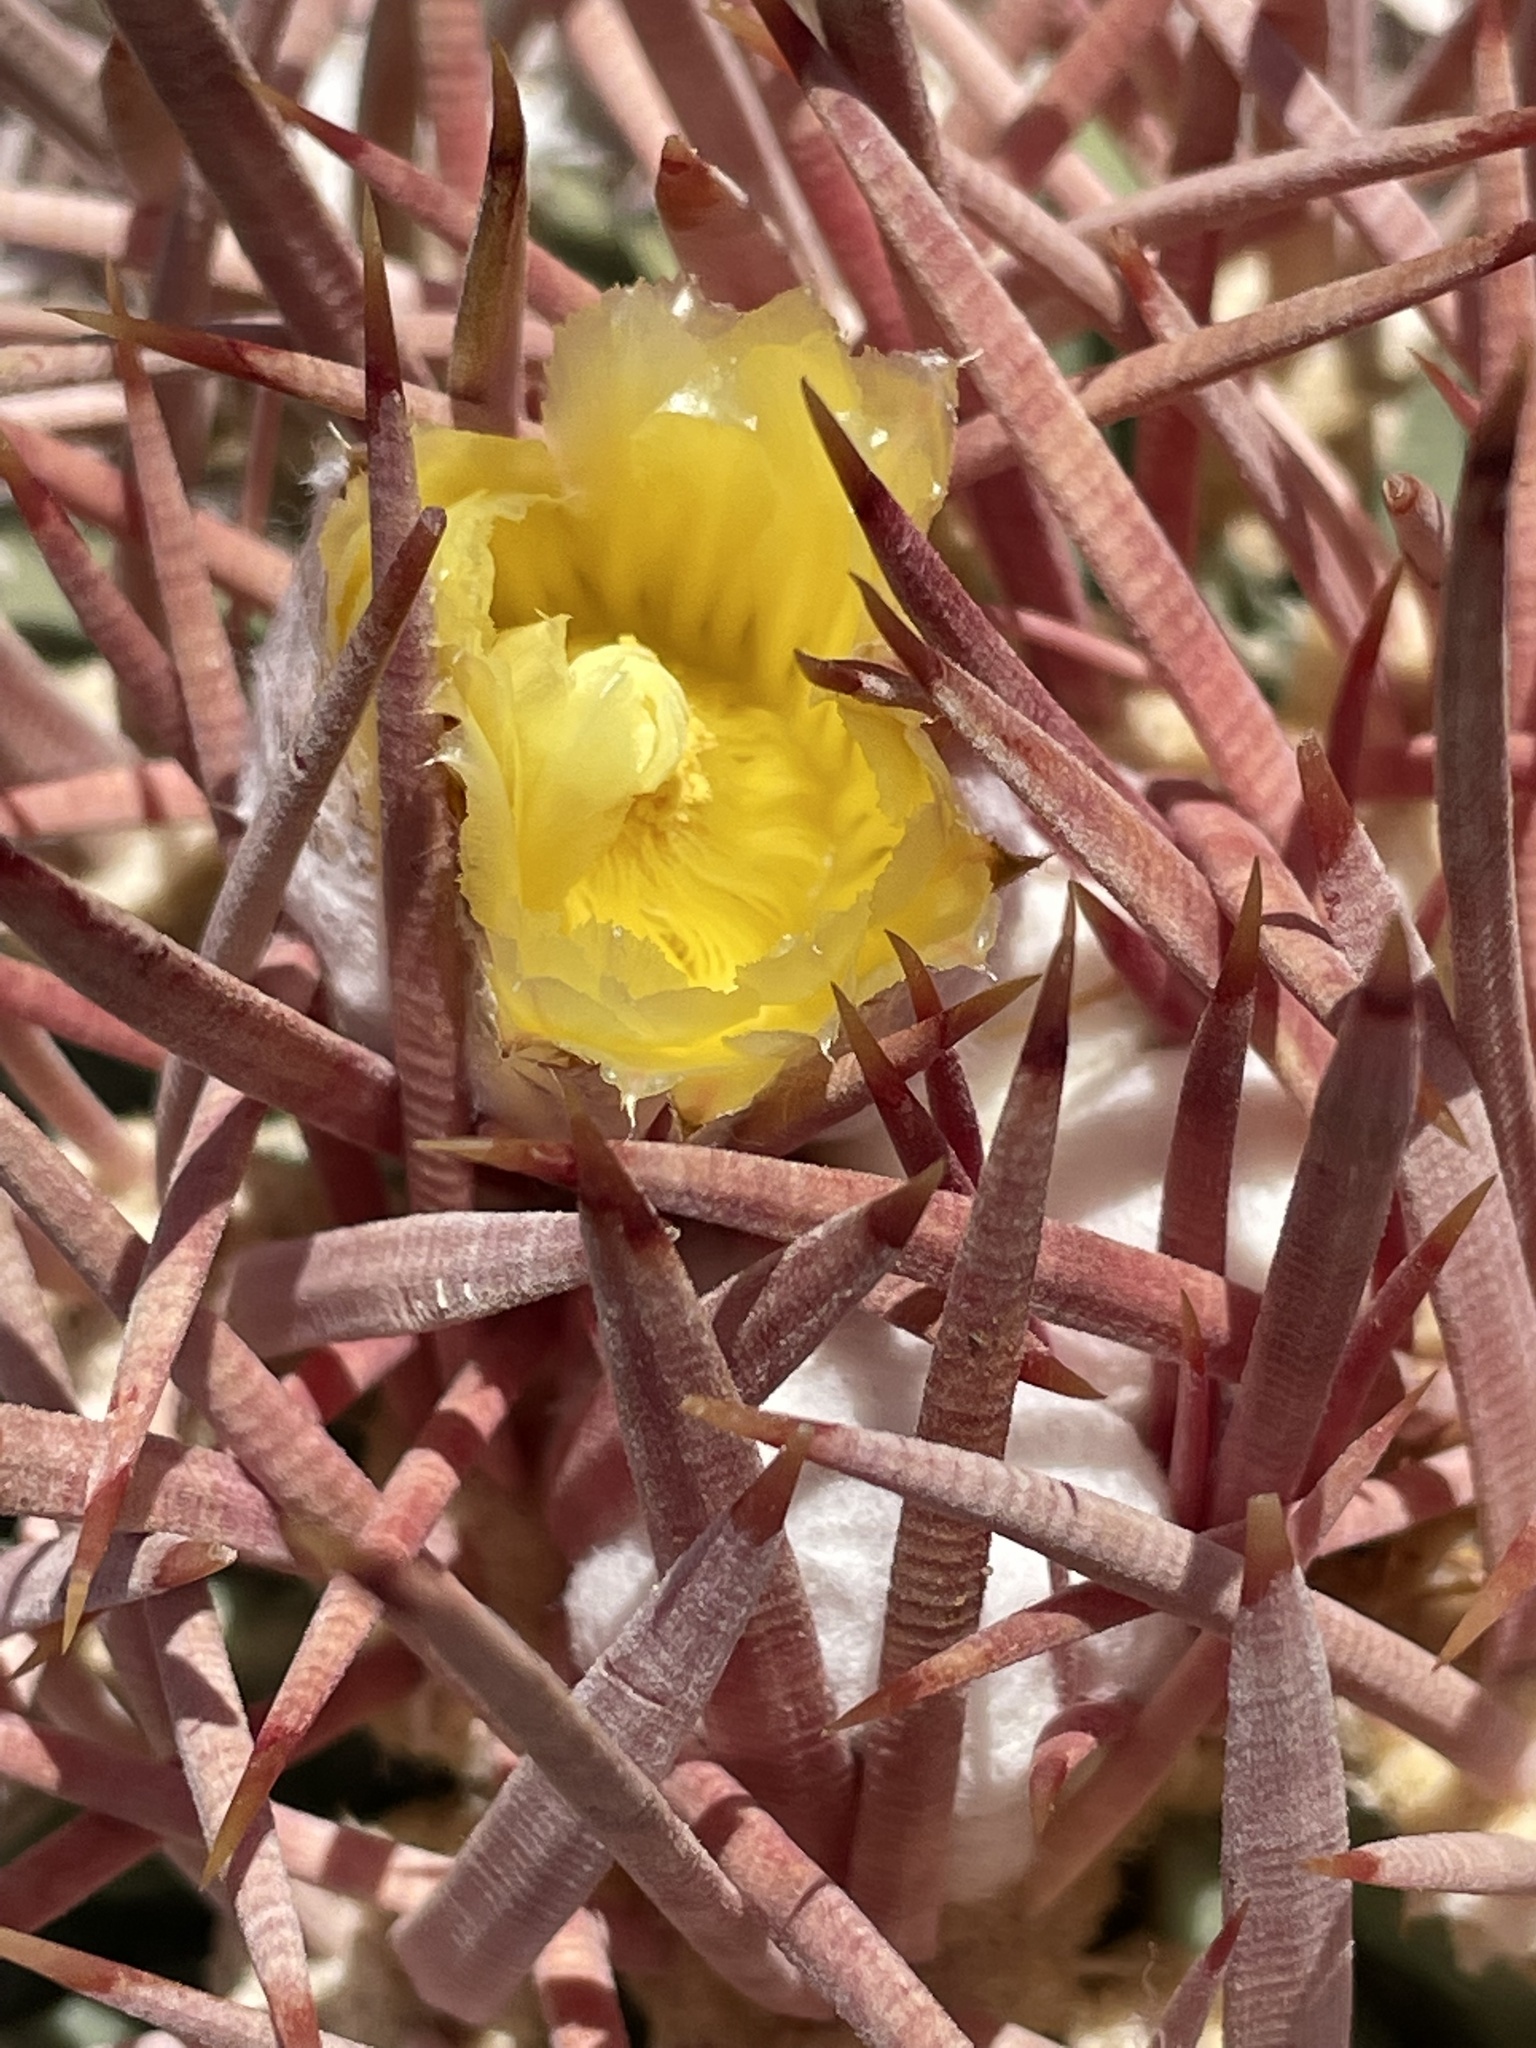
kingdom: Plantae
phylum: Tracheophyta
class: Magnoliopsida
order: Caryophyllales
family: Cactaceae
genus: Echinocactus
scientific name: Echinocactus polycephalus
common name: Cottontop cactus
